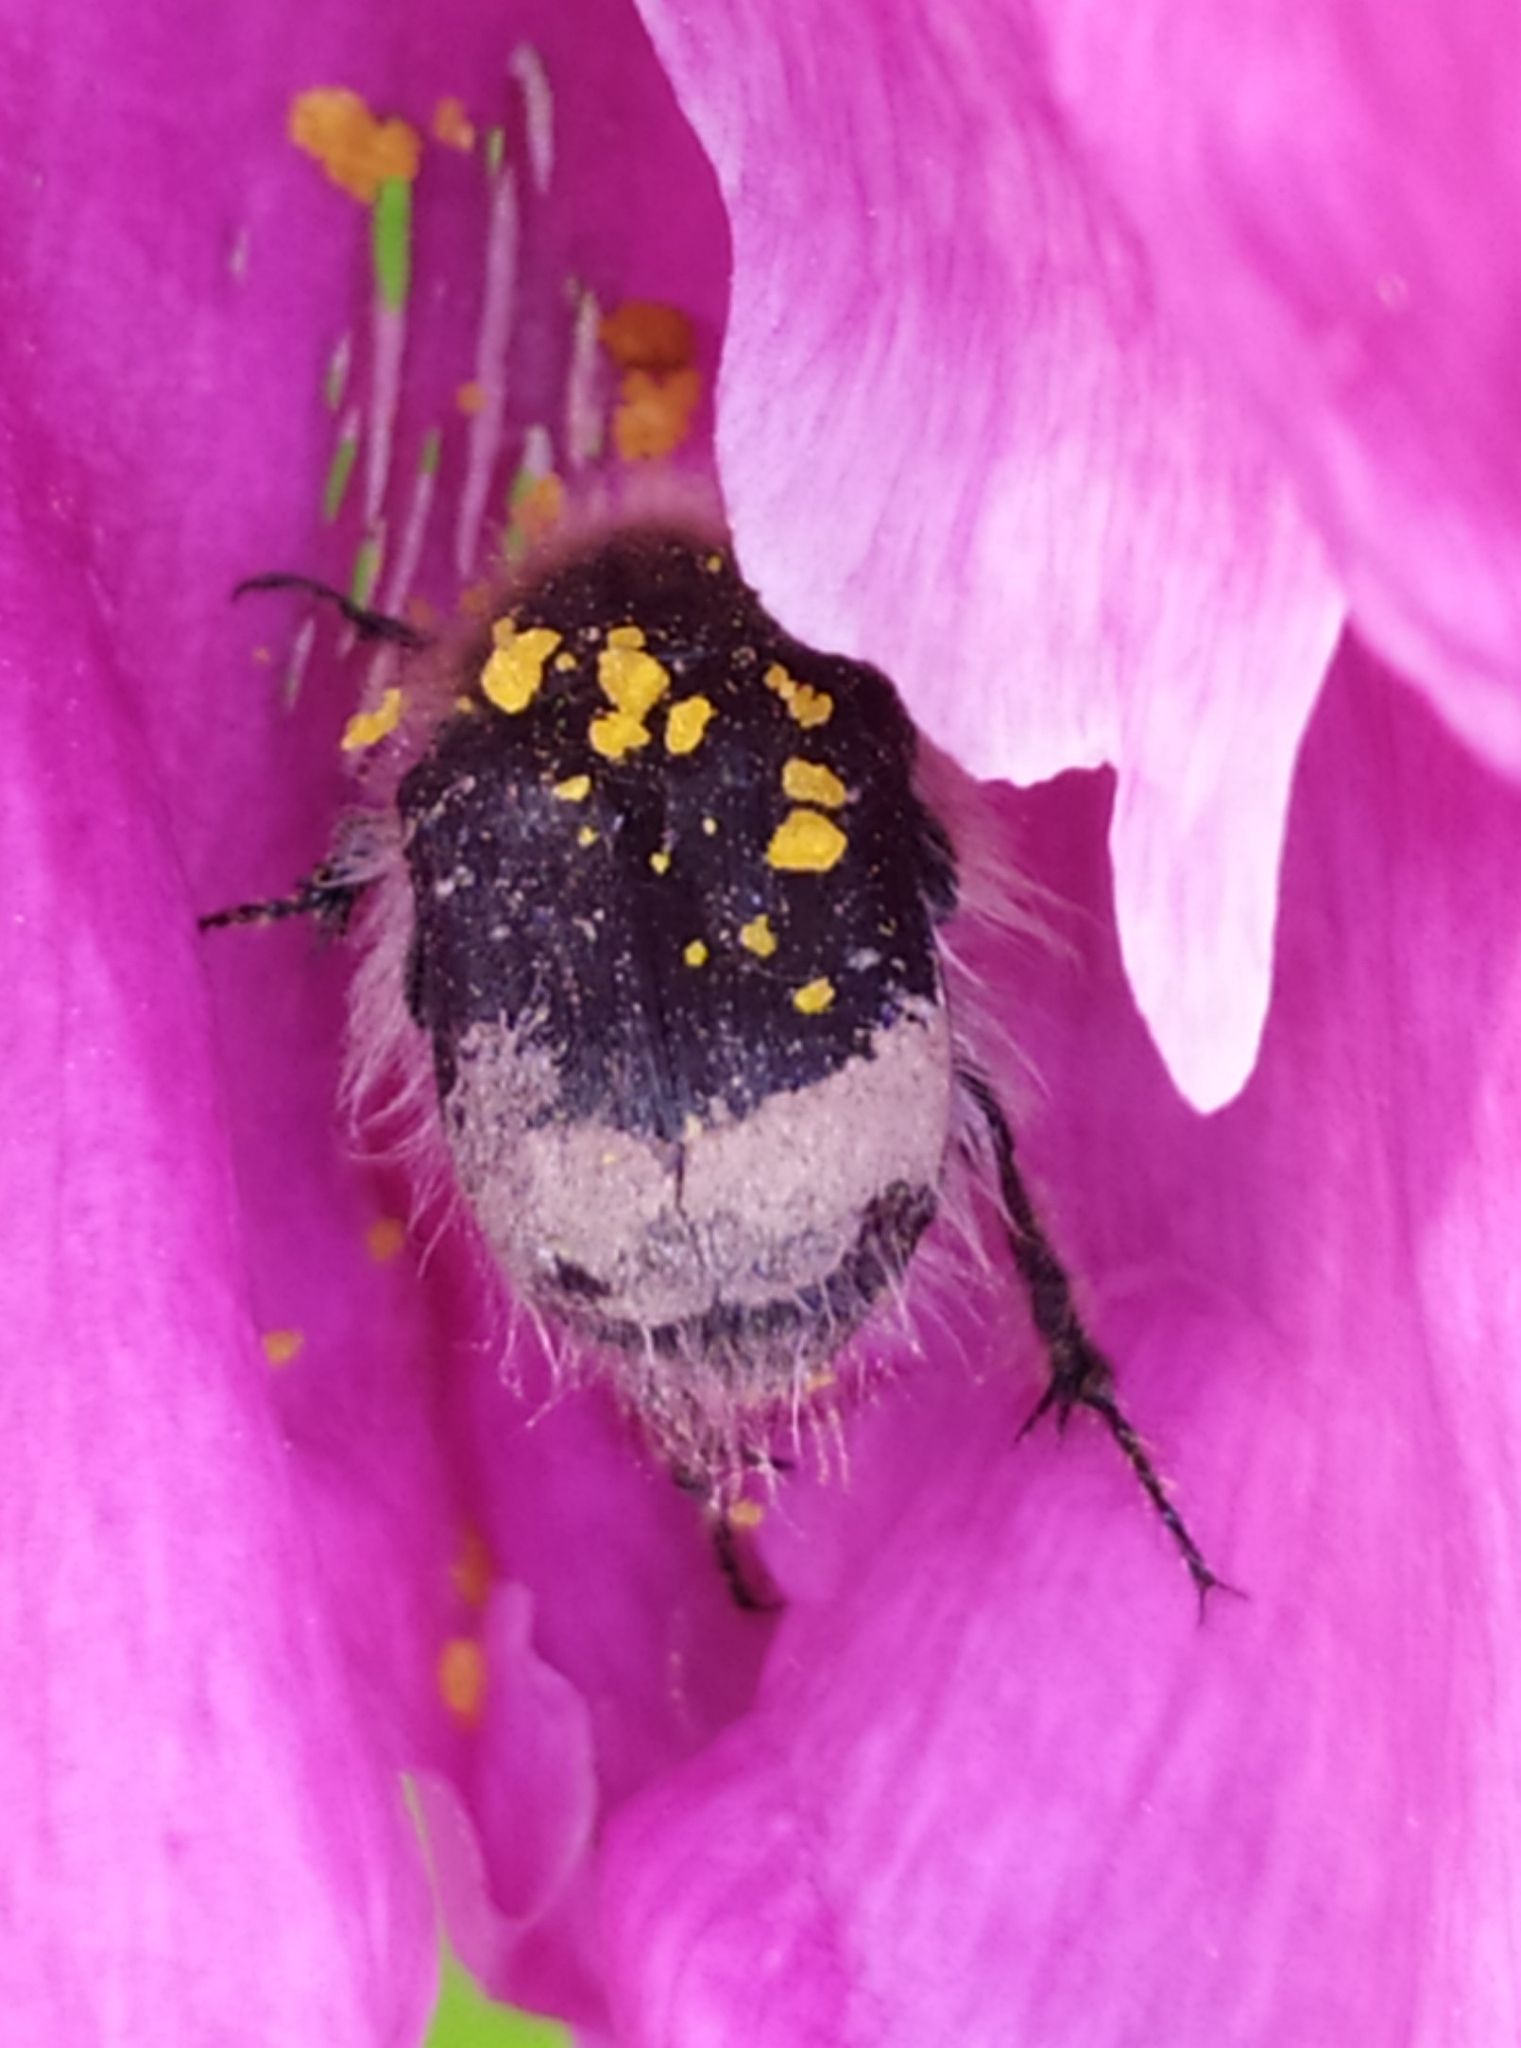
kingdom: Animalia
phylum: Arthropoda
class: Insecta
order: Coleoptera
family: Scarabaeidae
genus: Tropinota
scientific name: Tropinota hirta
